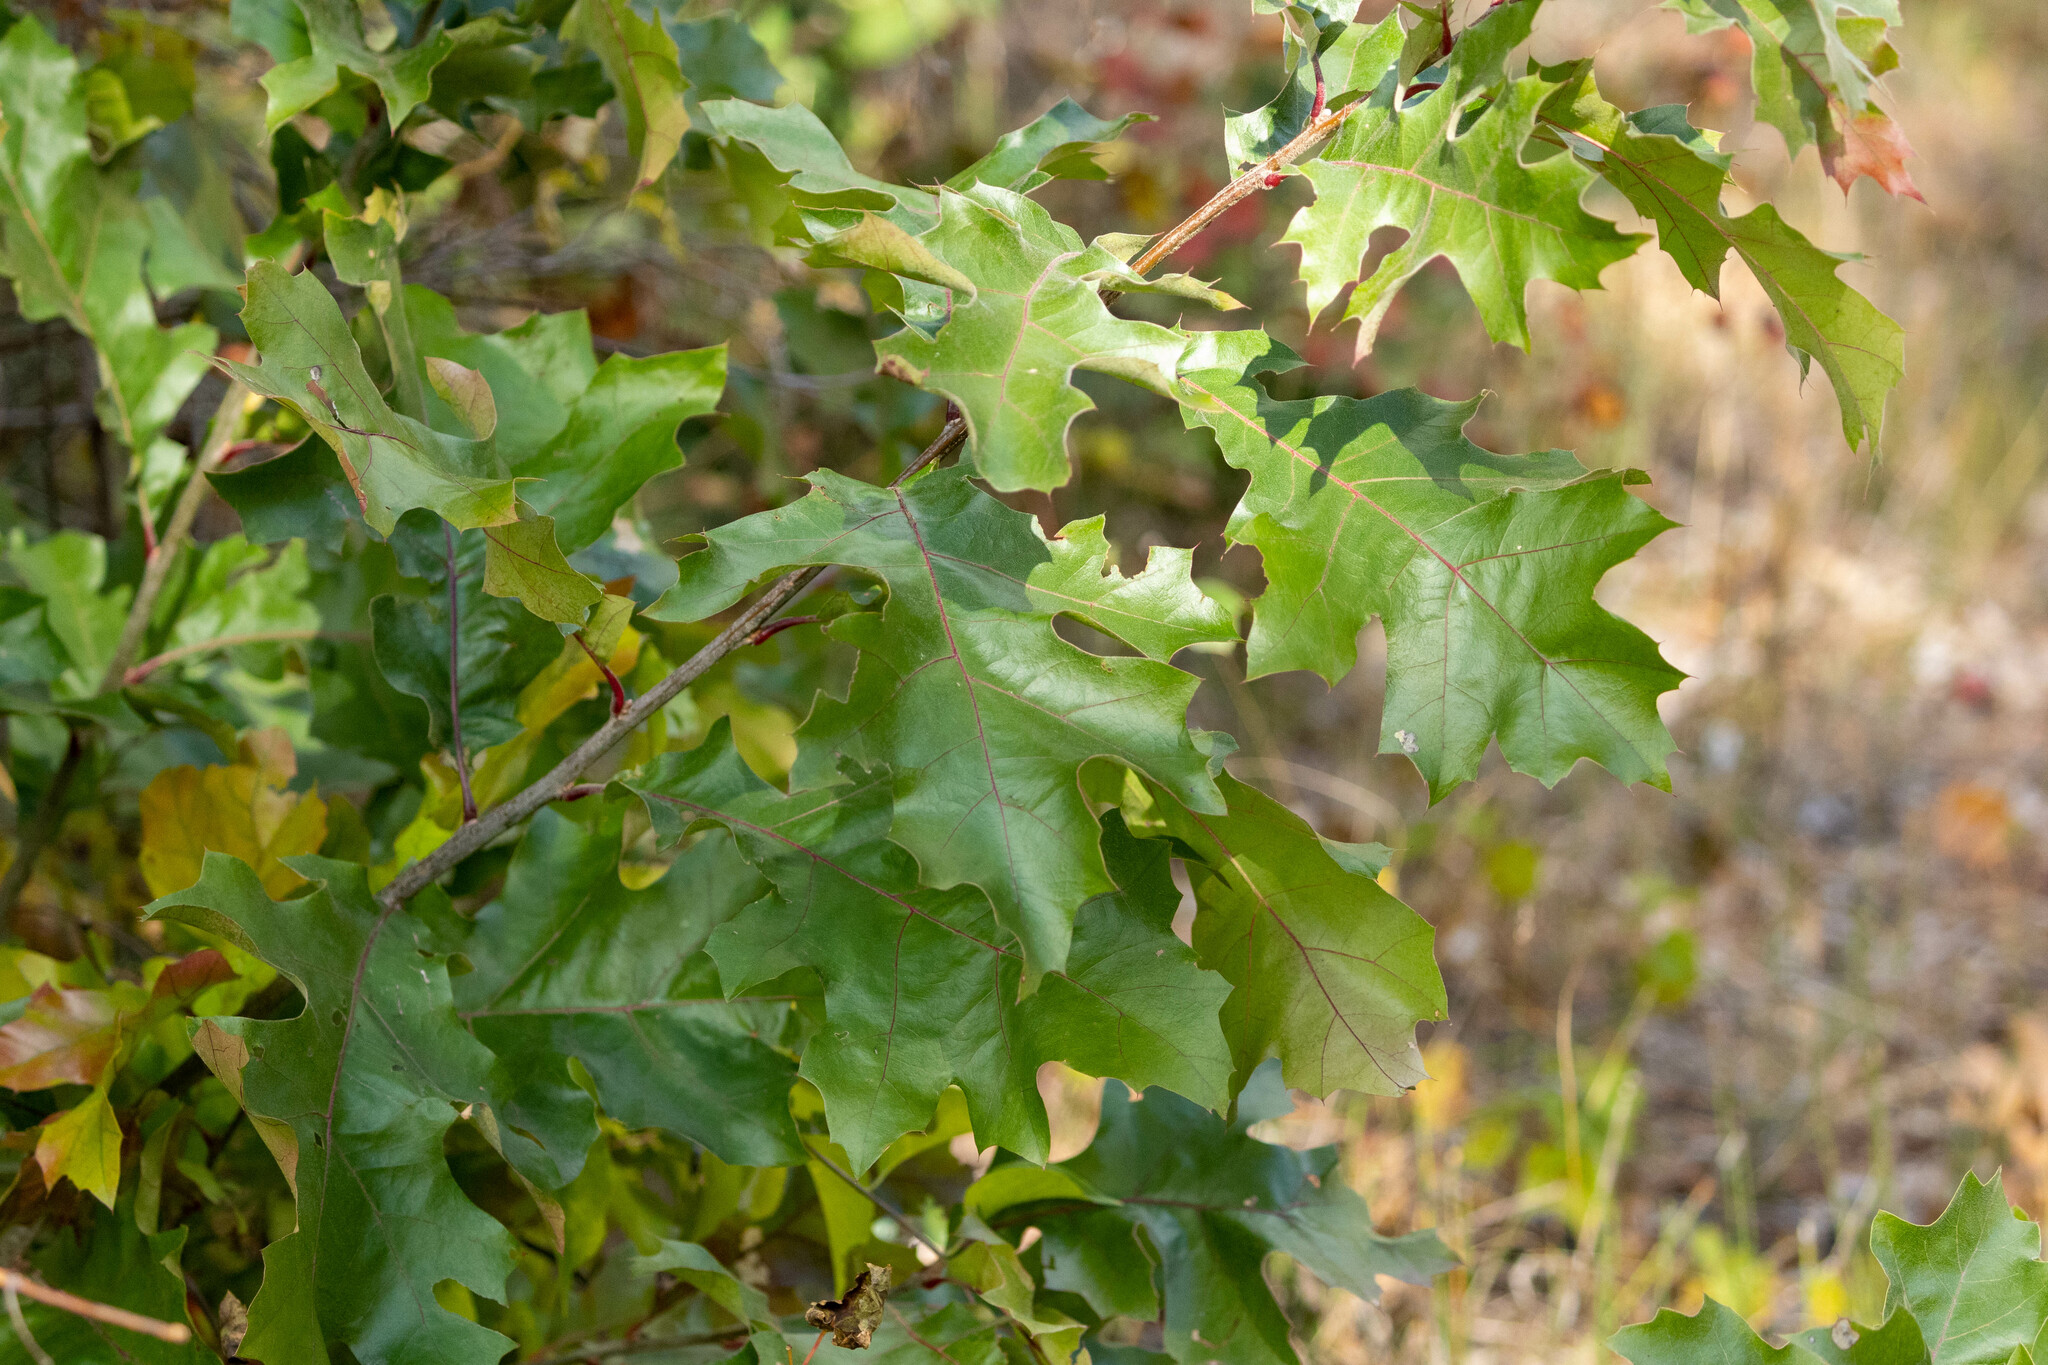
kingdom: Plantae
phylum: Tracheophyta
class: Magnoliopsida
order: Fagales
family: Fagaceae
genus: Quercus
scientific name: Quercus velutina
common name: Black oak
